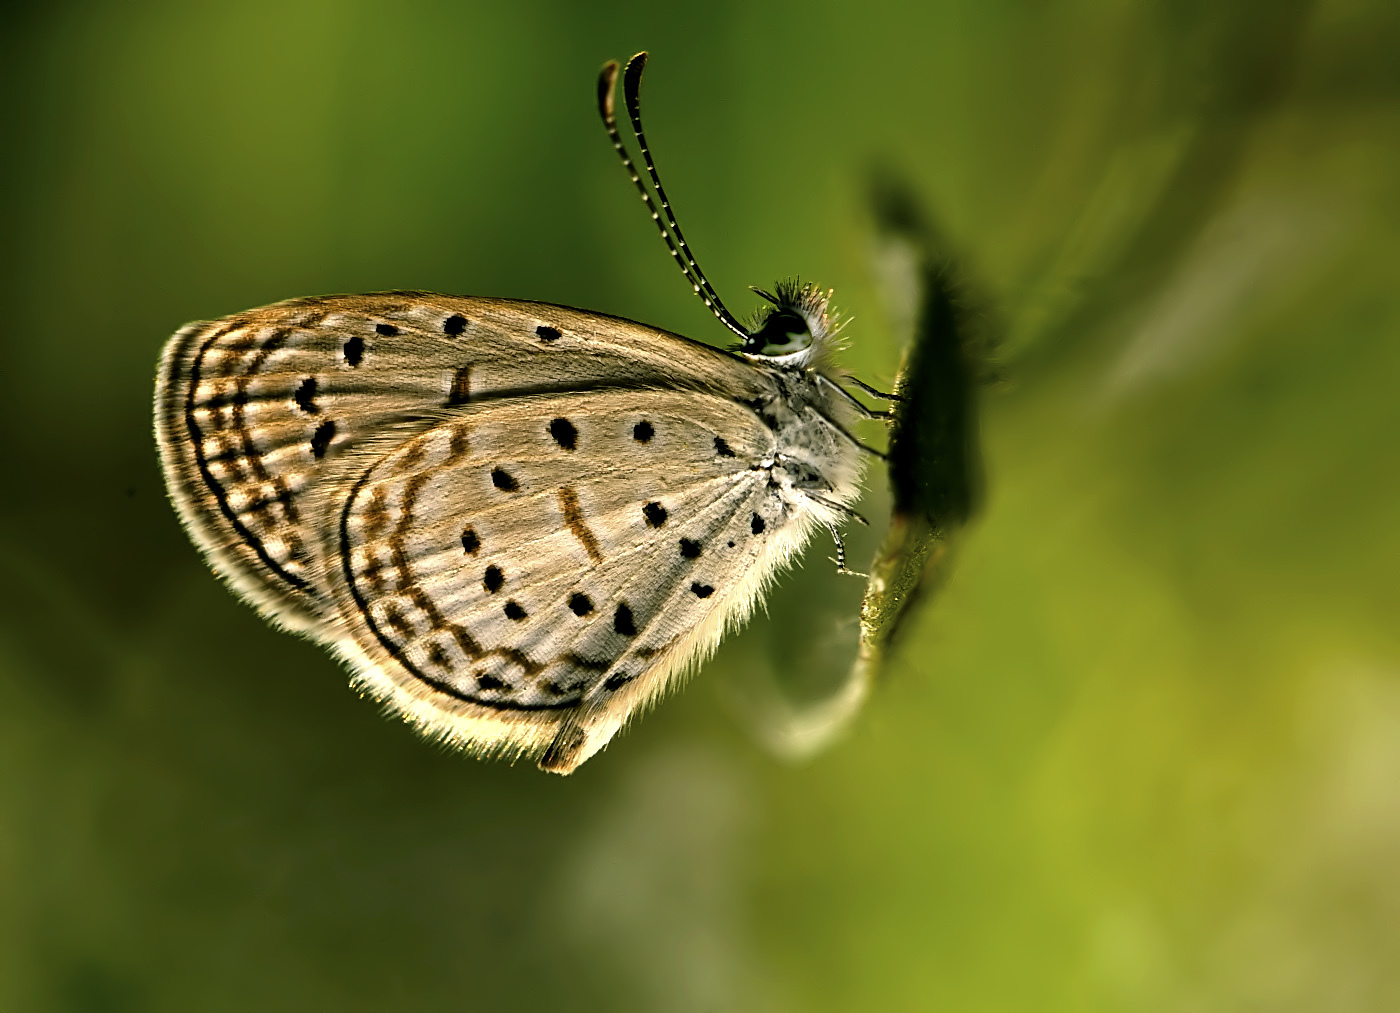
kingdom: Animalia
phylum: Arthropoda
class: Insecta
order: Lepidoptera
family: Lycaenidae
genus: Zizula
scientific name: Zizula hylax
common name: Gaika blue
